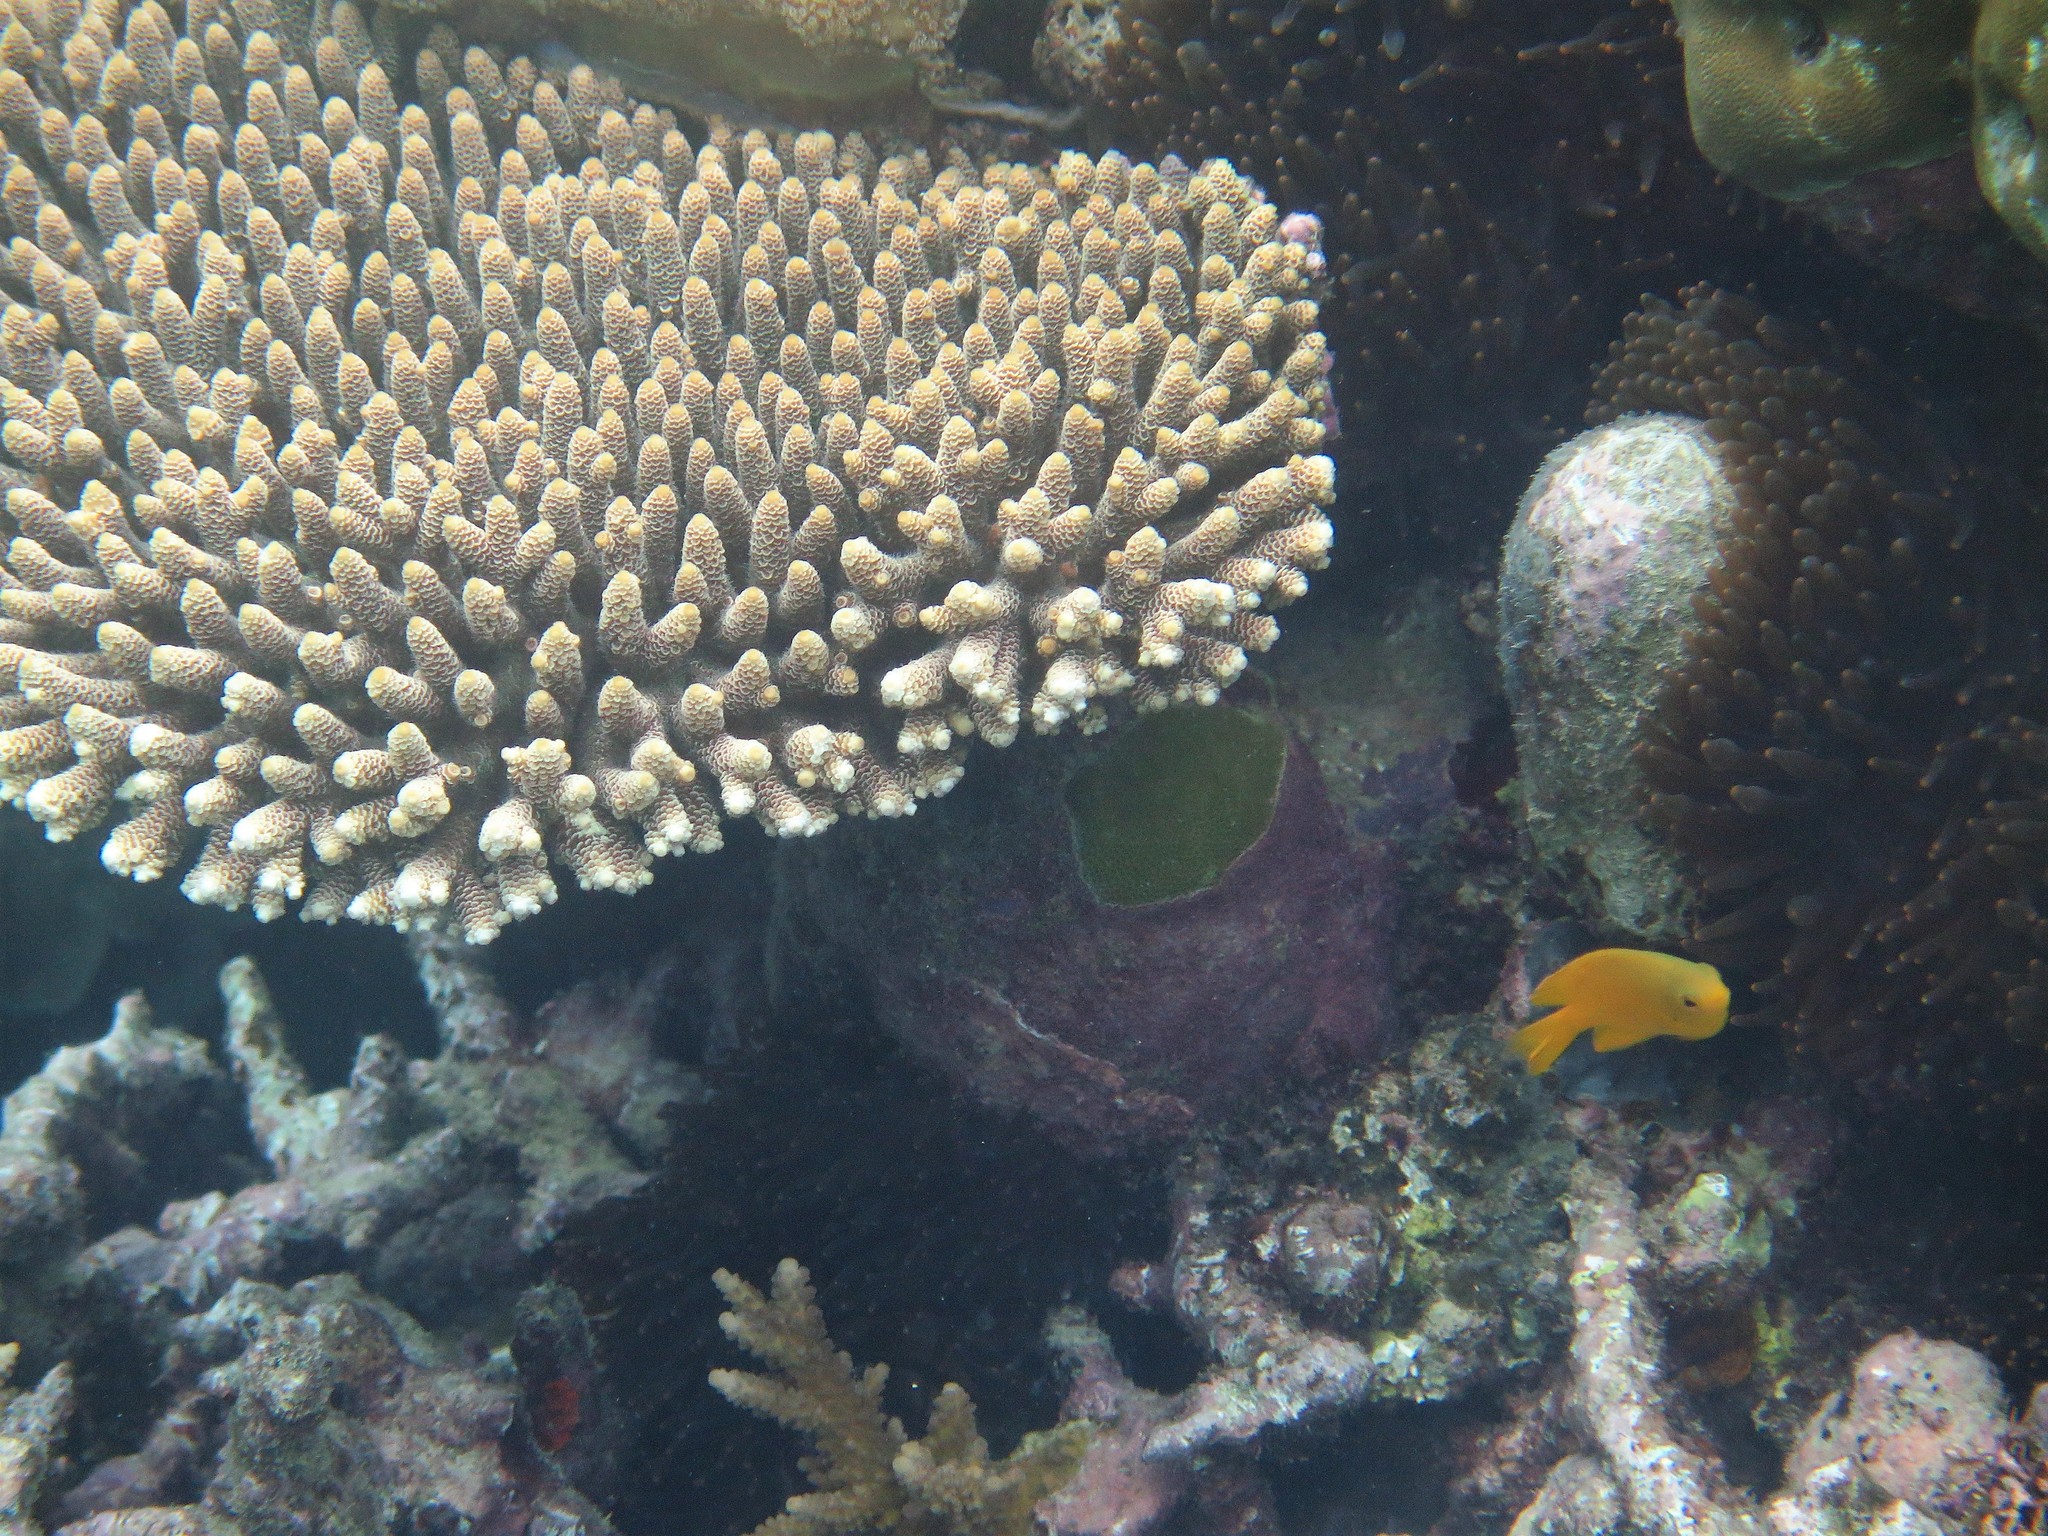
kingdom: Animalia
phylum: Chordata
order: Perciformes
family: Pomacentridae
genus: Pomacentrus
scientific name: Pomacentrus moluccensis
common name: Lemon damsel
